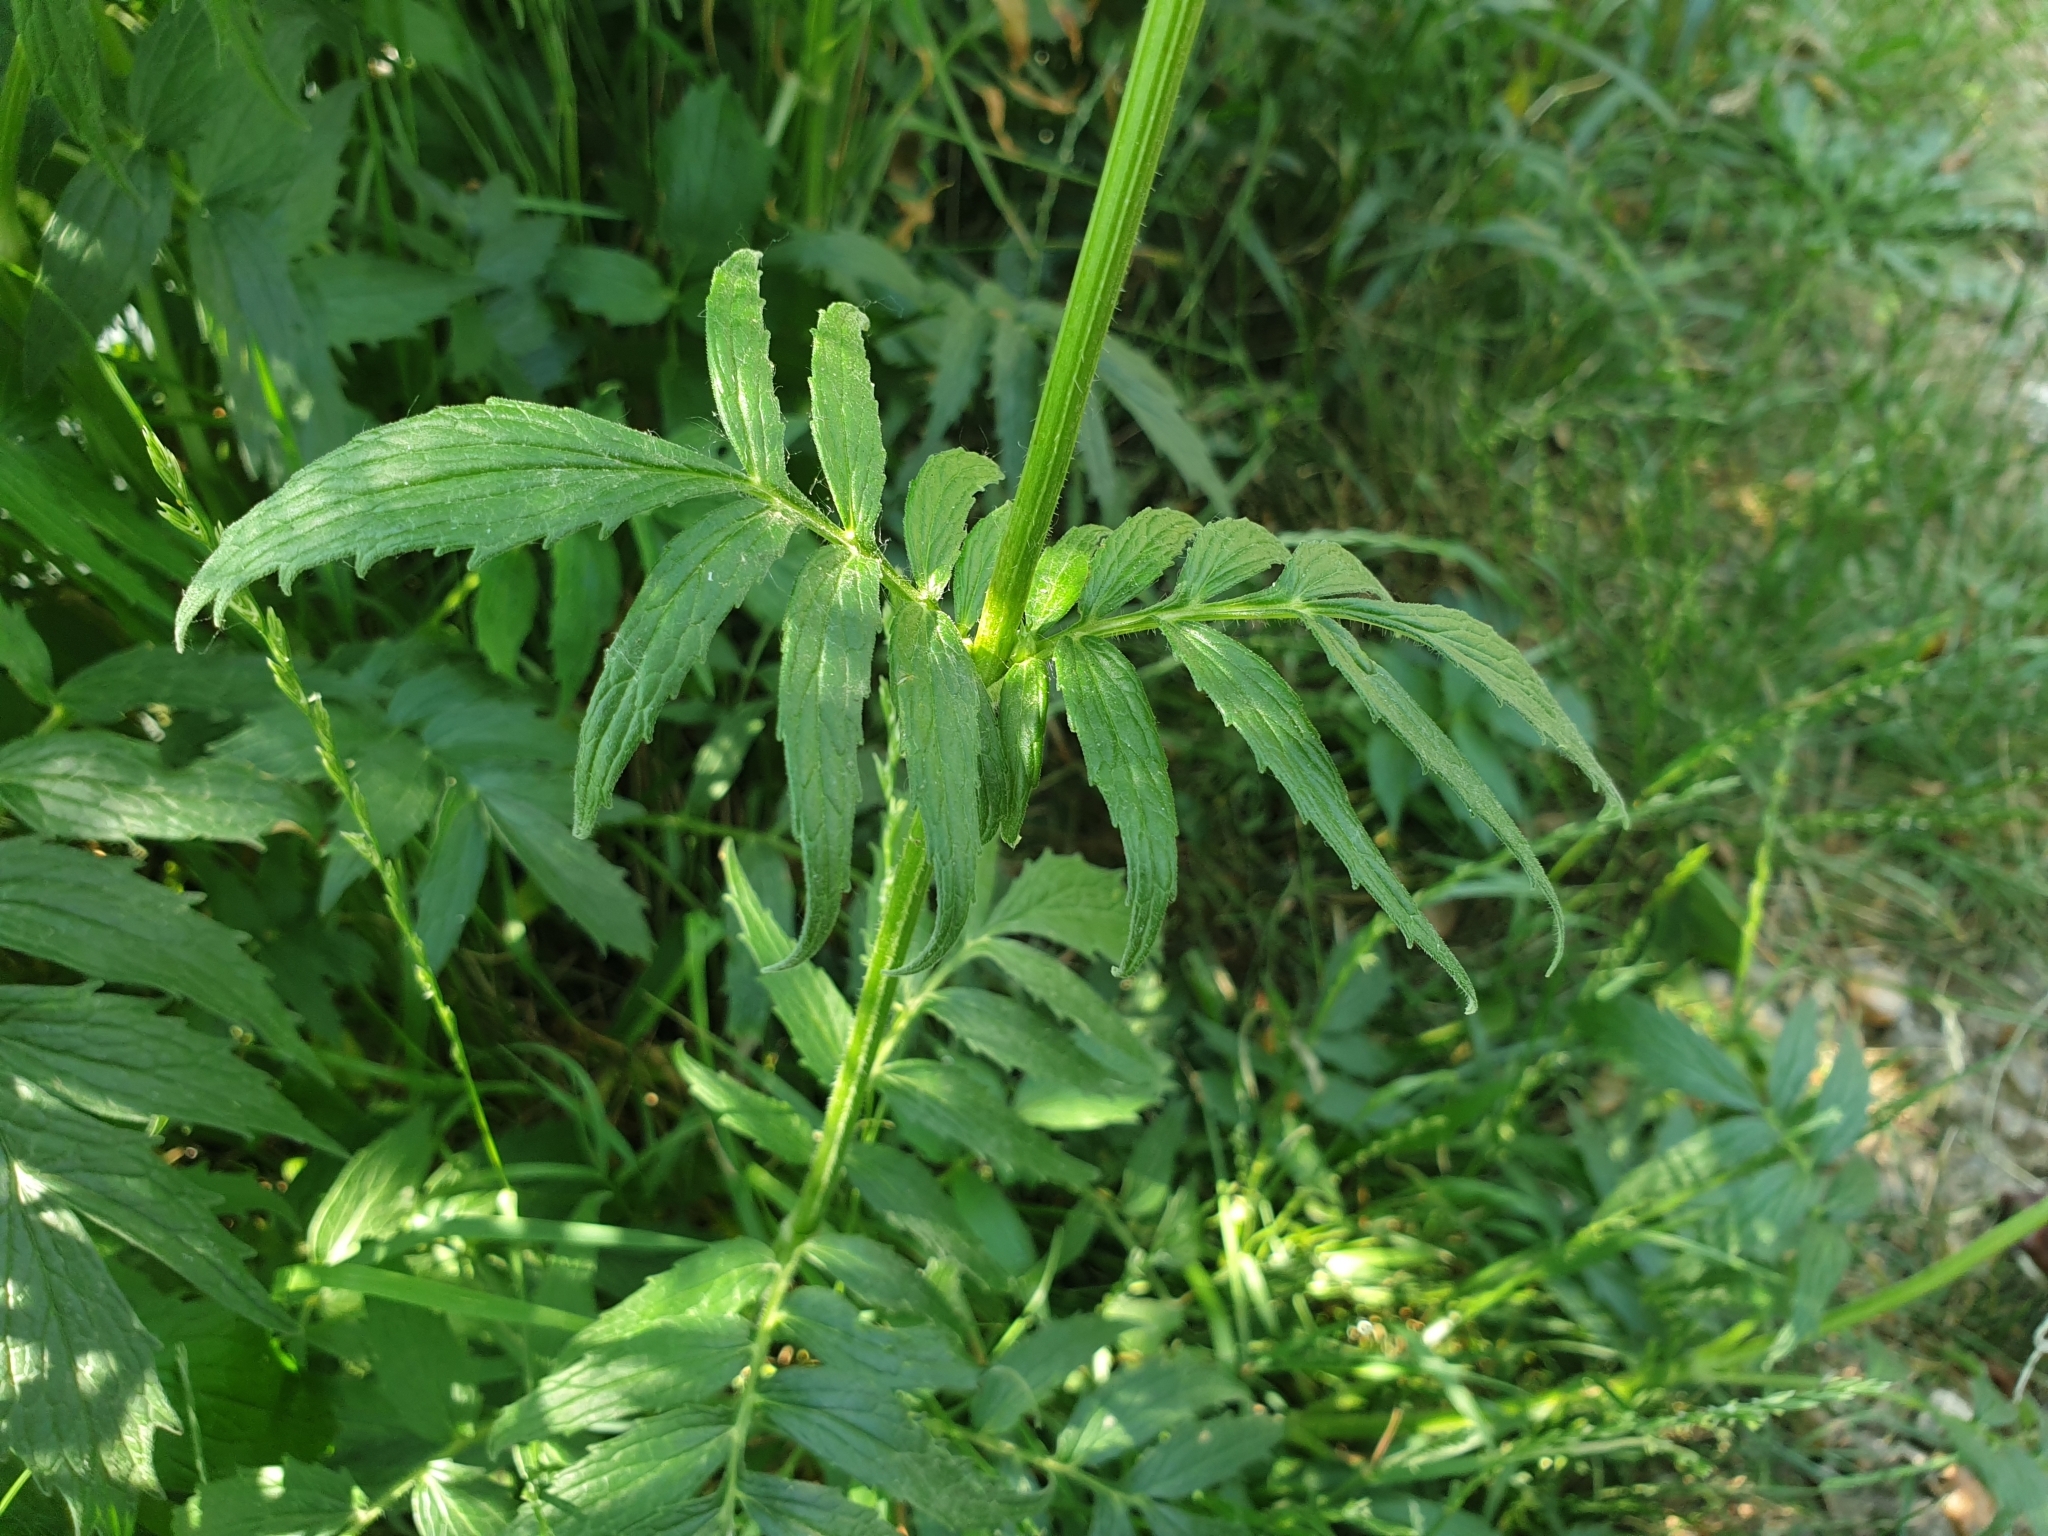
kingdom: Plantae
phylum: Tracheophyta
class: Magnoliopsida
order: Dipsacales
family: Caprifoliaceae
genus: Valeriana
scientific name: Valeriana officinalis
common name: Common valerian
